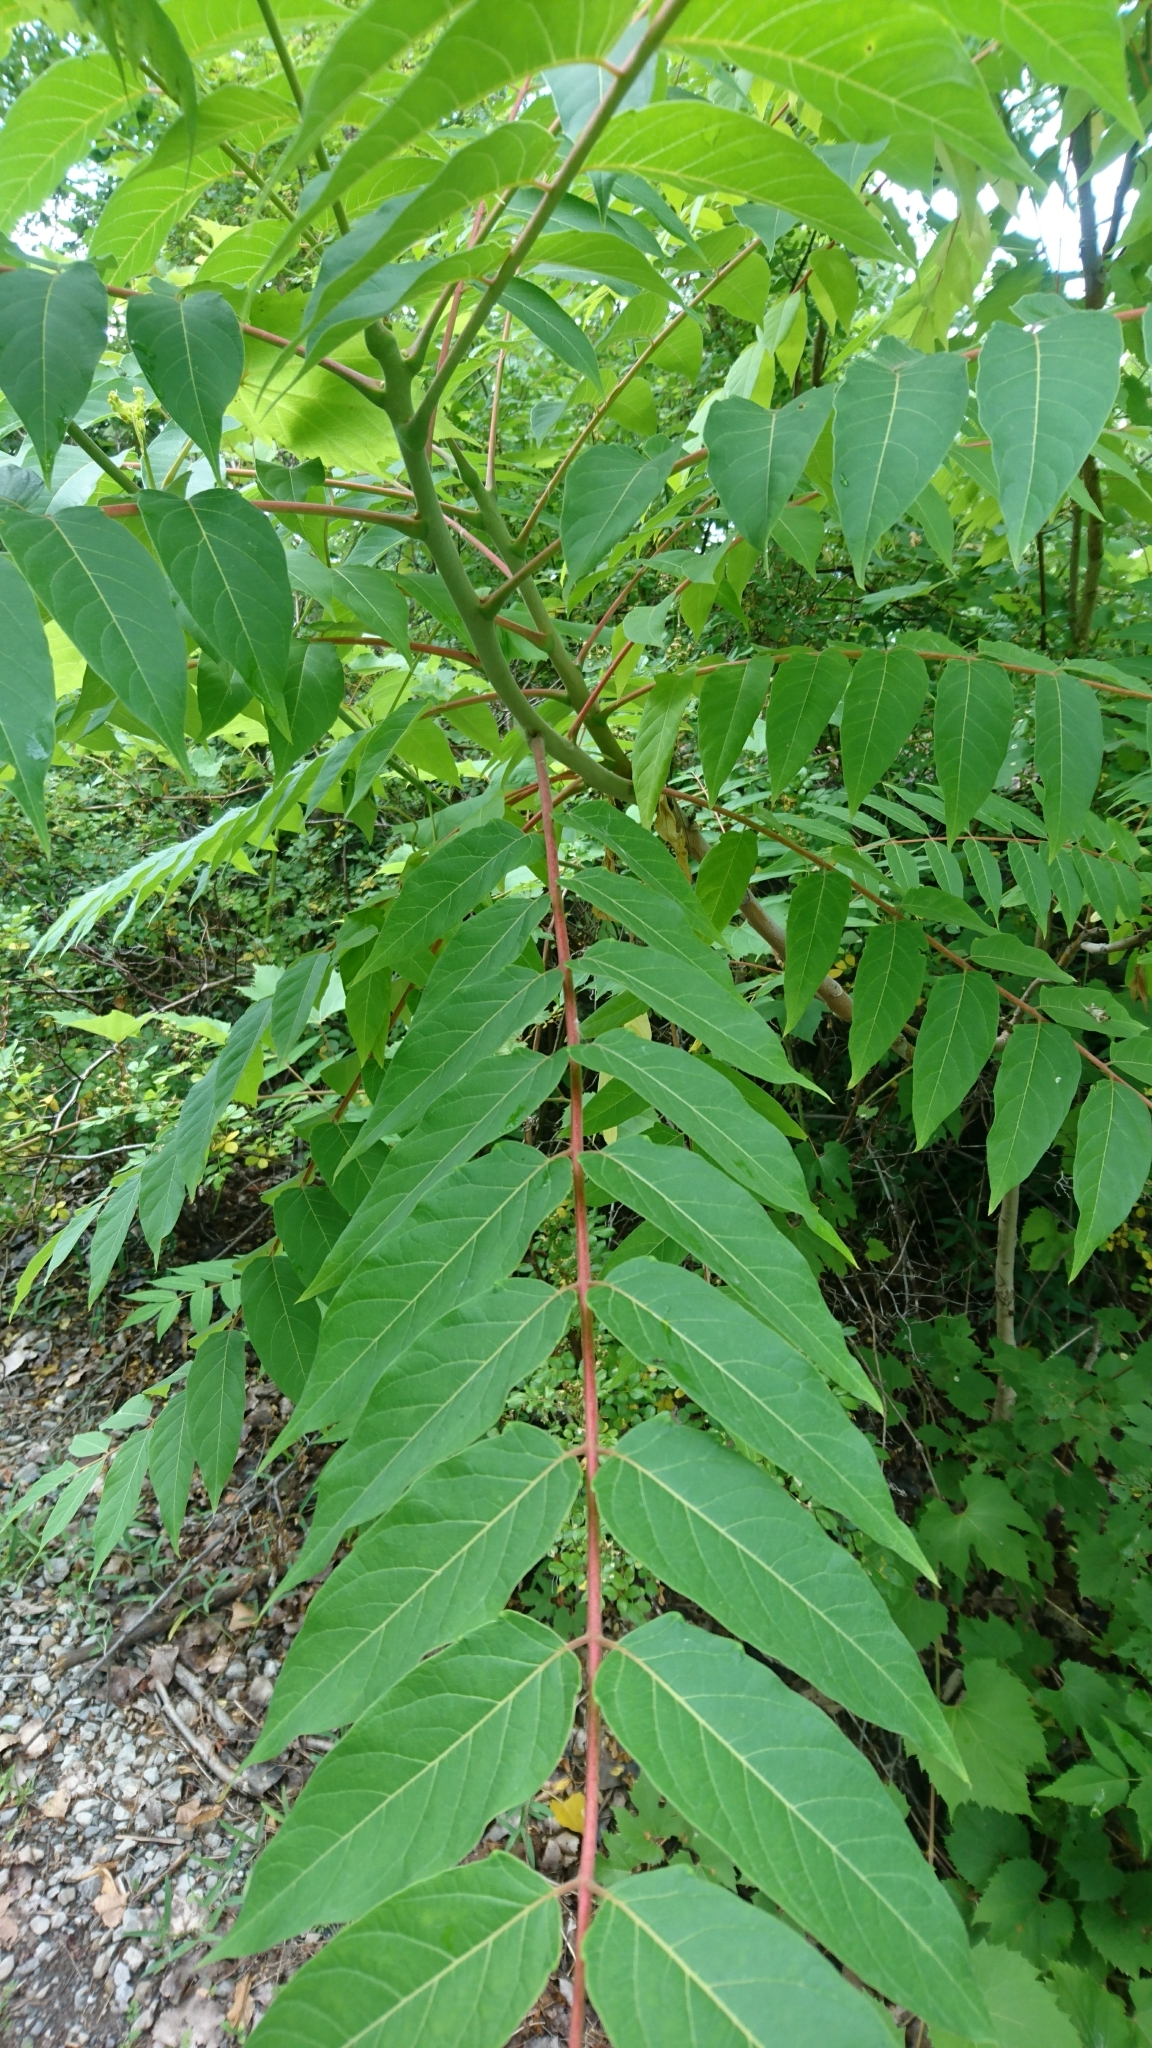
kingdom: Plantae
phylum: Tracheophyta
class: Magnoliopsida
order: Sapindales
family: Simaroubaceae
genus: Ailanthus
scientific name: Ailanthus altissima
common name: Tree-of-heaven
